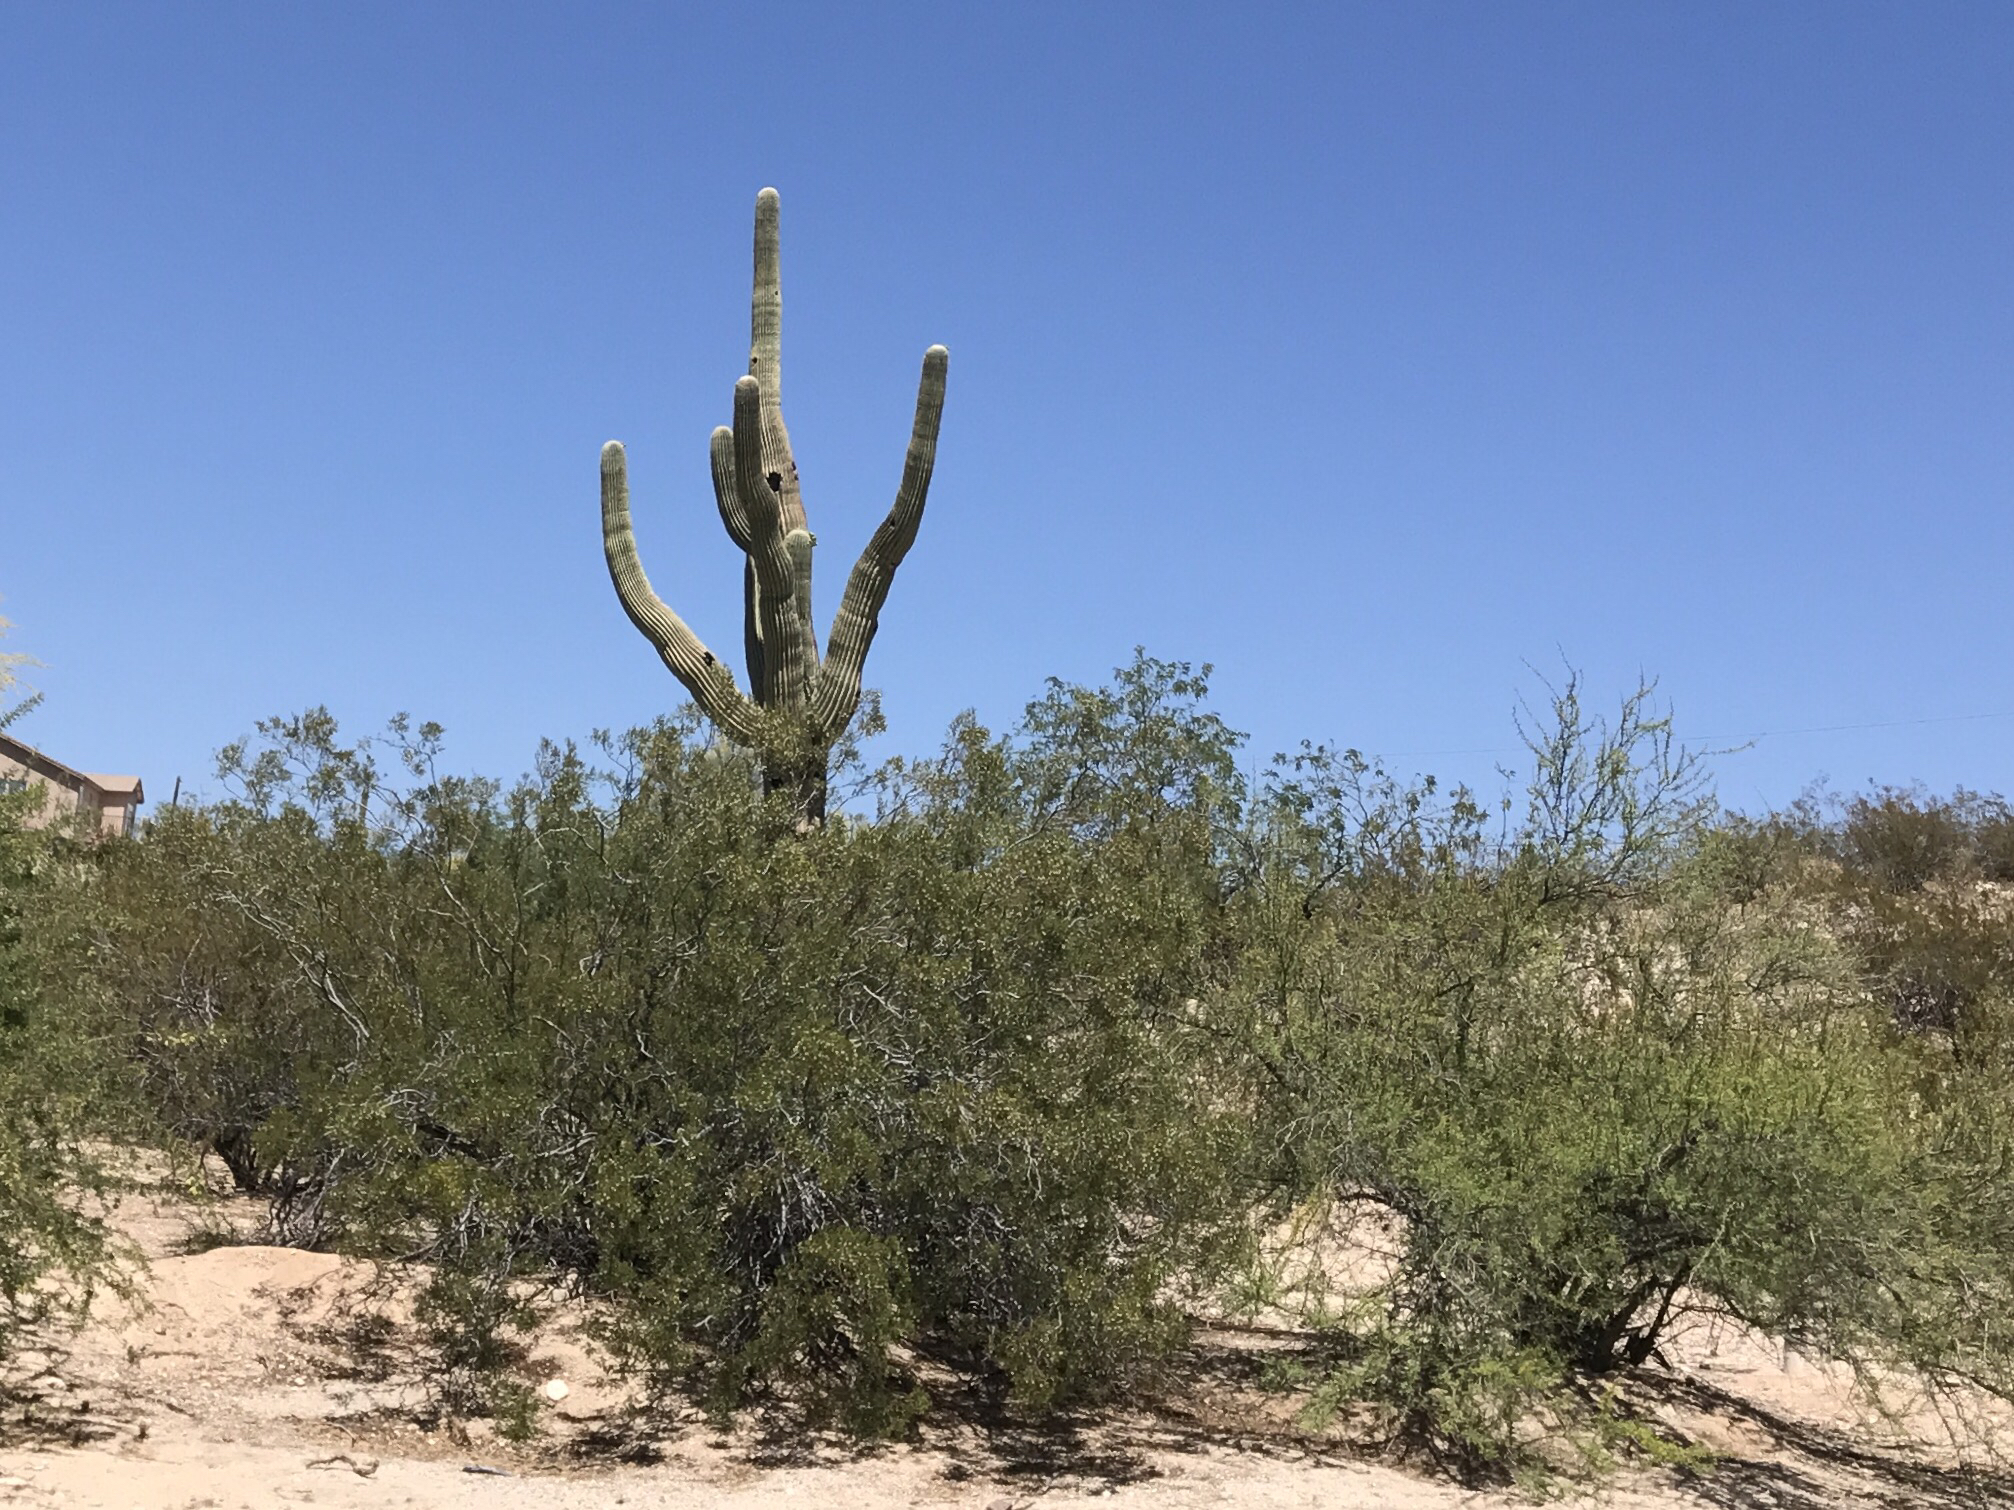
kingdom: Plantae
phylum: Tracheophyta
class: Magnoliopsida
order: Caryophyllales
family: Cactaceae
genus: Carnegiea
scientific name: Carnegiea gigantea
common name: Saguaro
